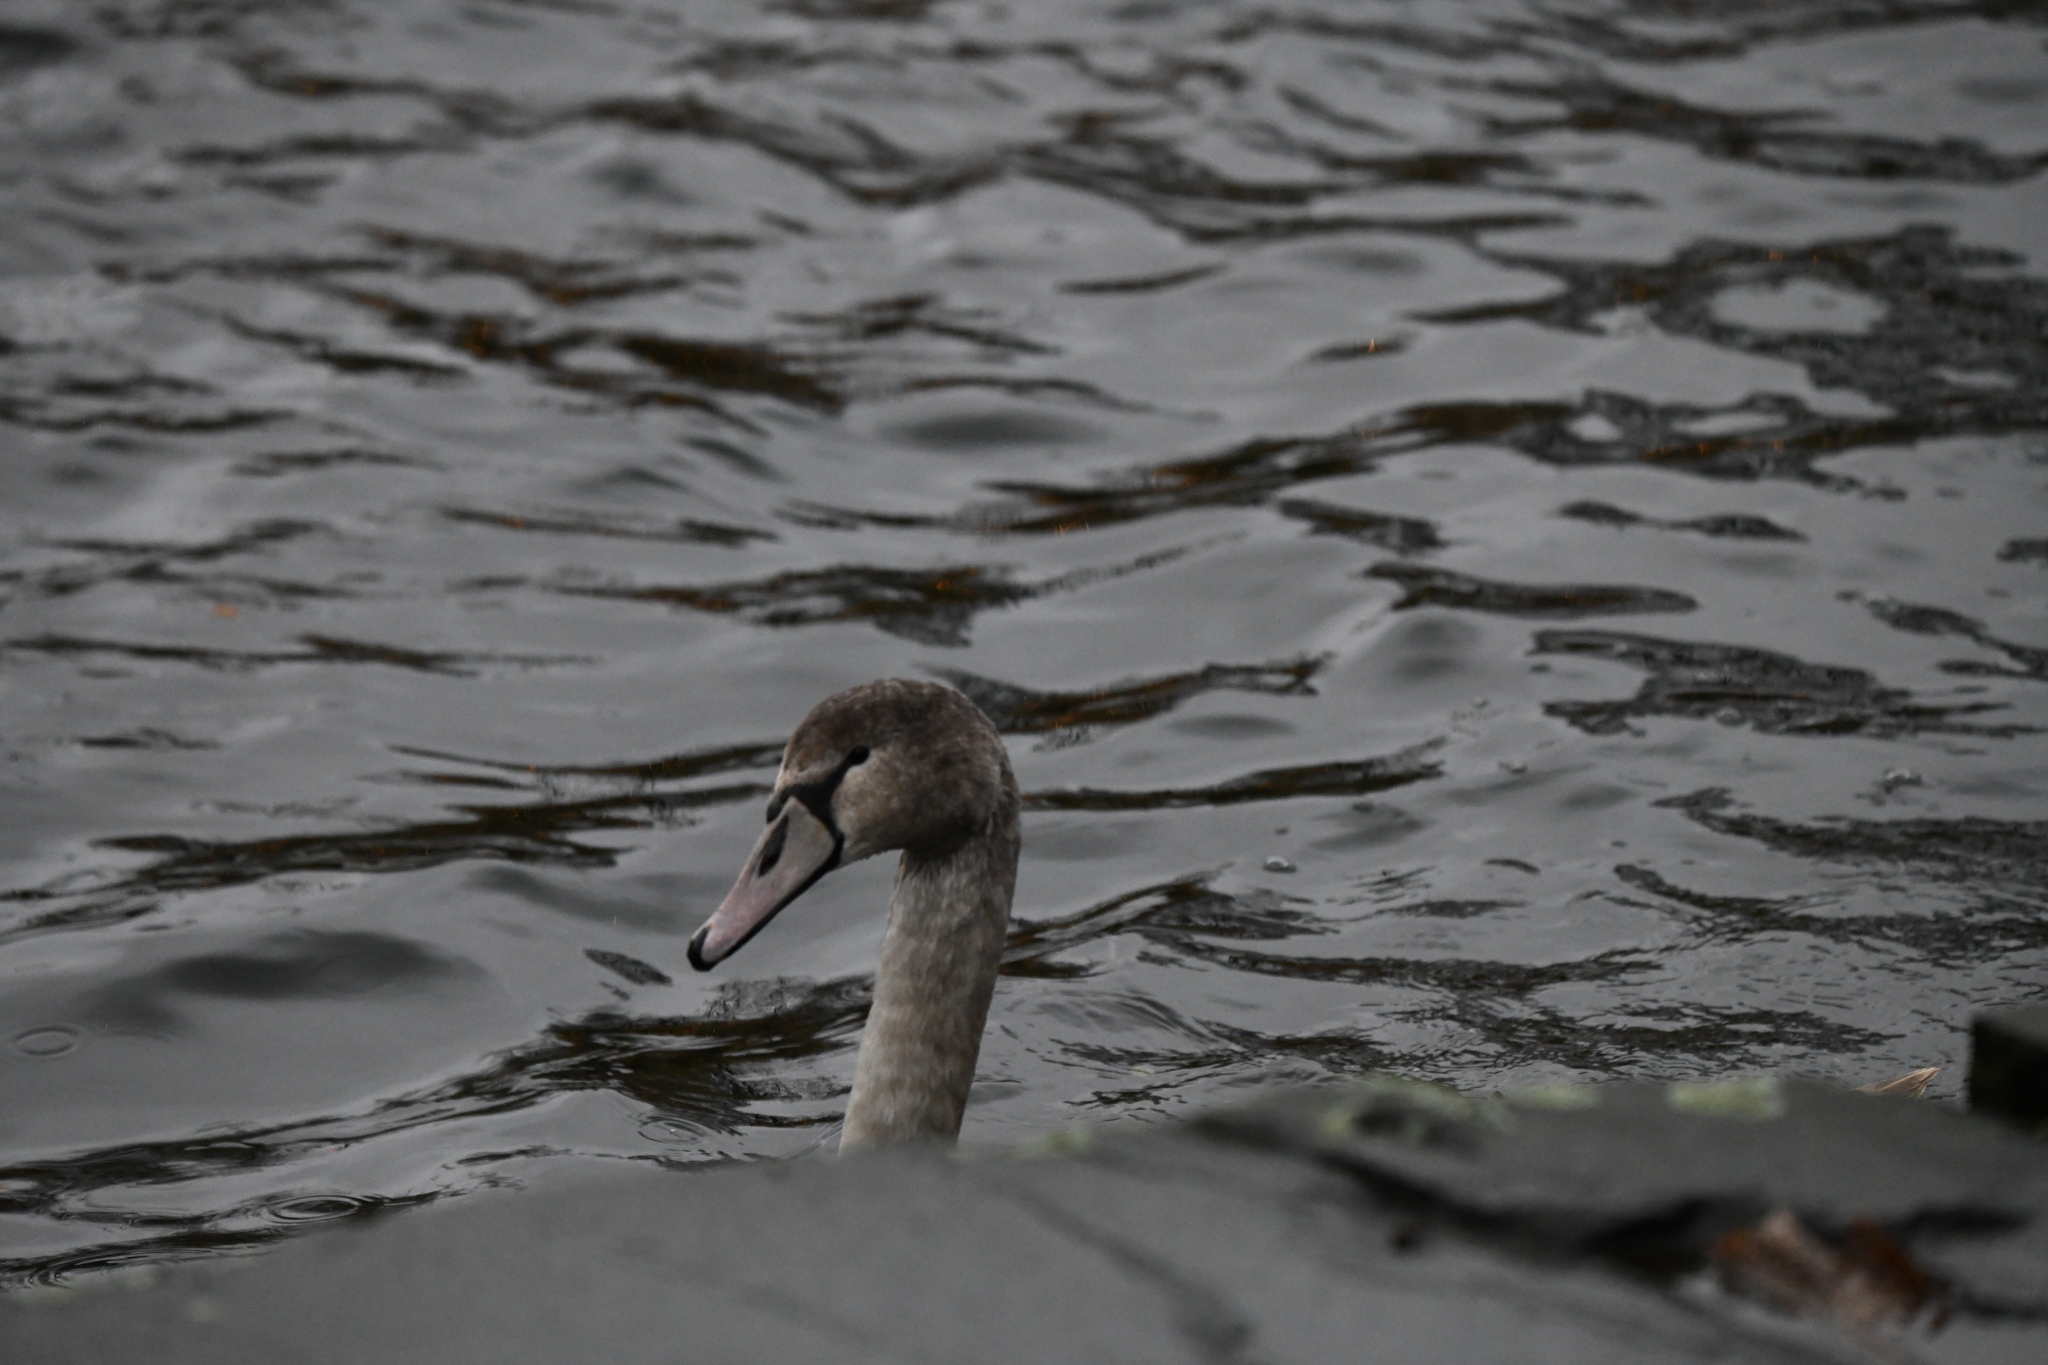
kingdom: Animalia
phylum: Chordata
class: Aves
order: Anseriformes
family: Anatidae
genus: Cygnus
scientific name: Cygnus olor
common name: Mute swan
